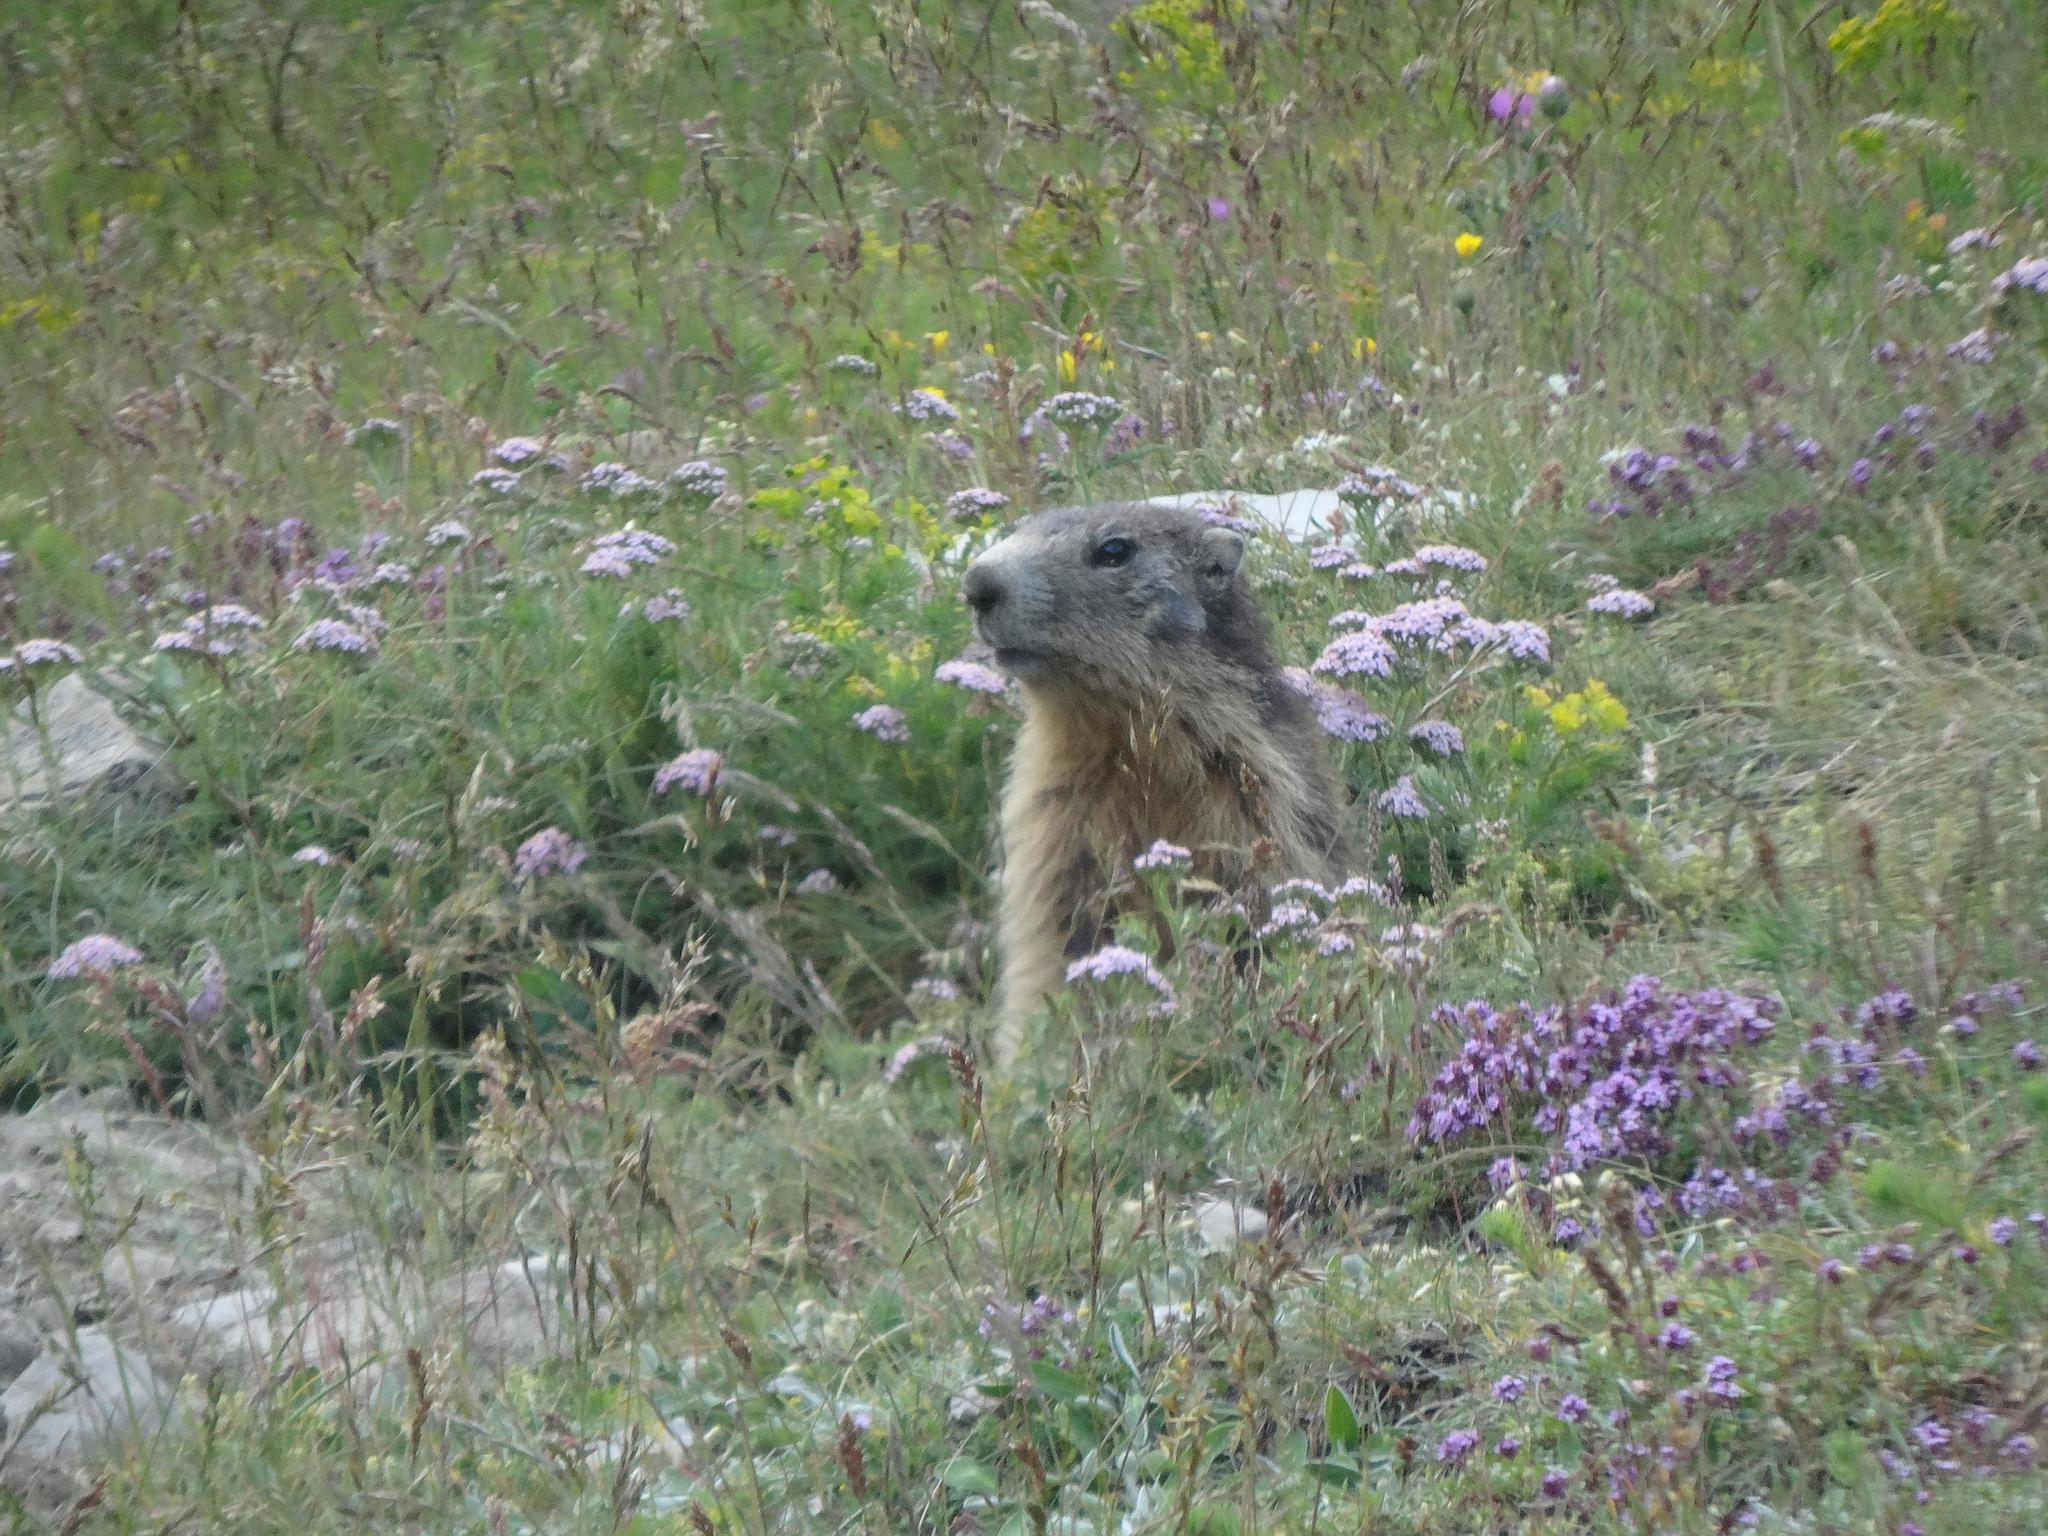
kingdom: Animalia
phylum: Chordata
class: Mammalia
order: Rodentia
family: Sciuridae
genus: Marmota
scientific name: Marmota marmota
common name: Alpine marmot
